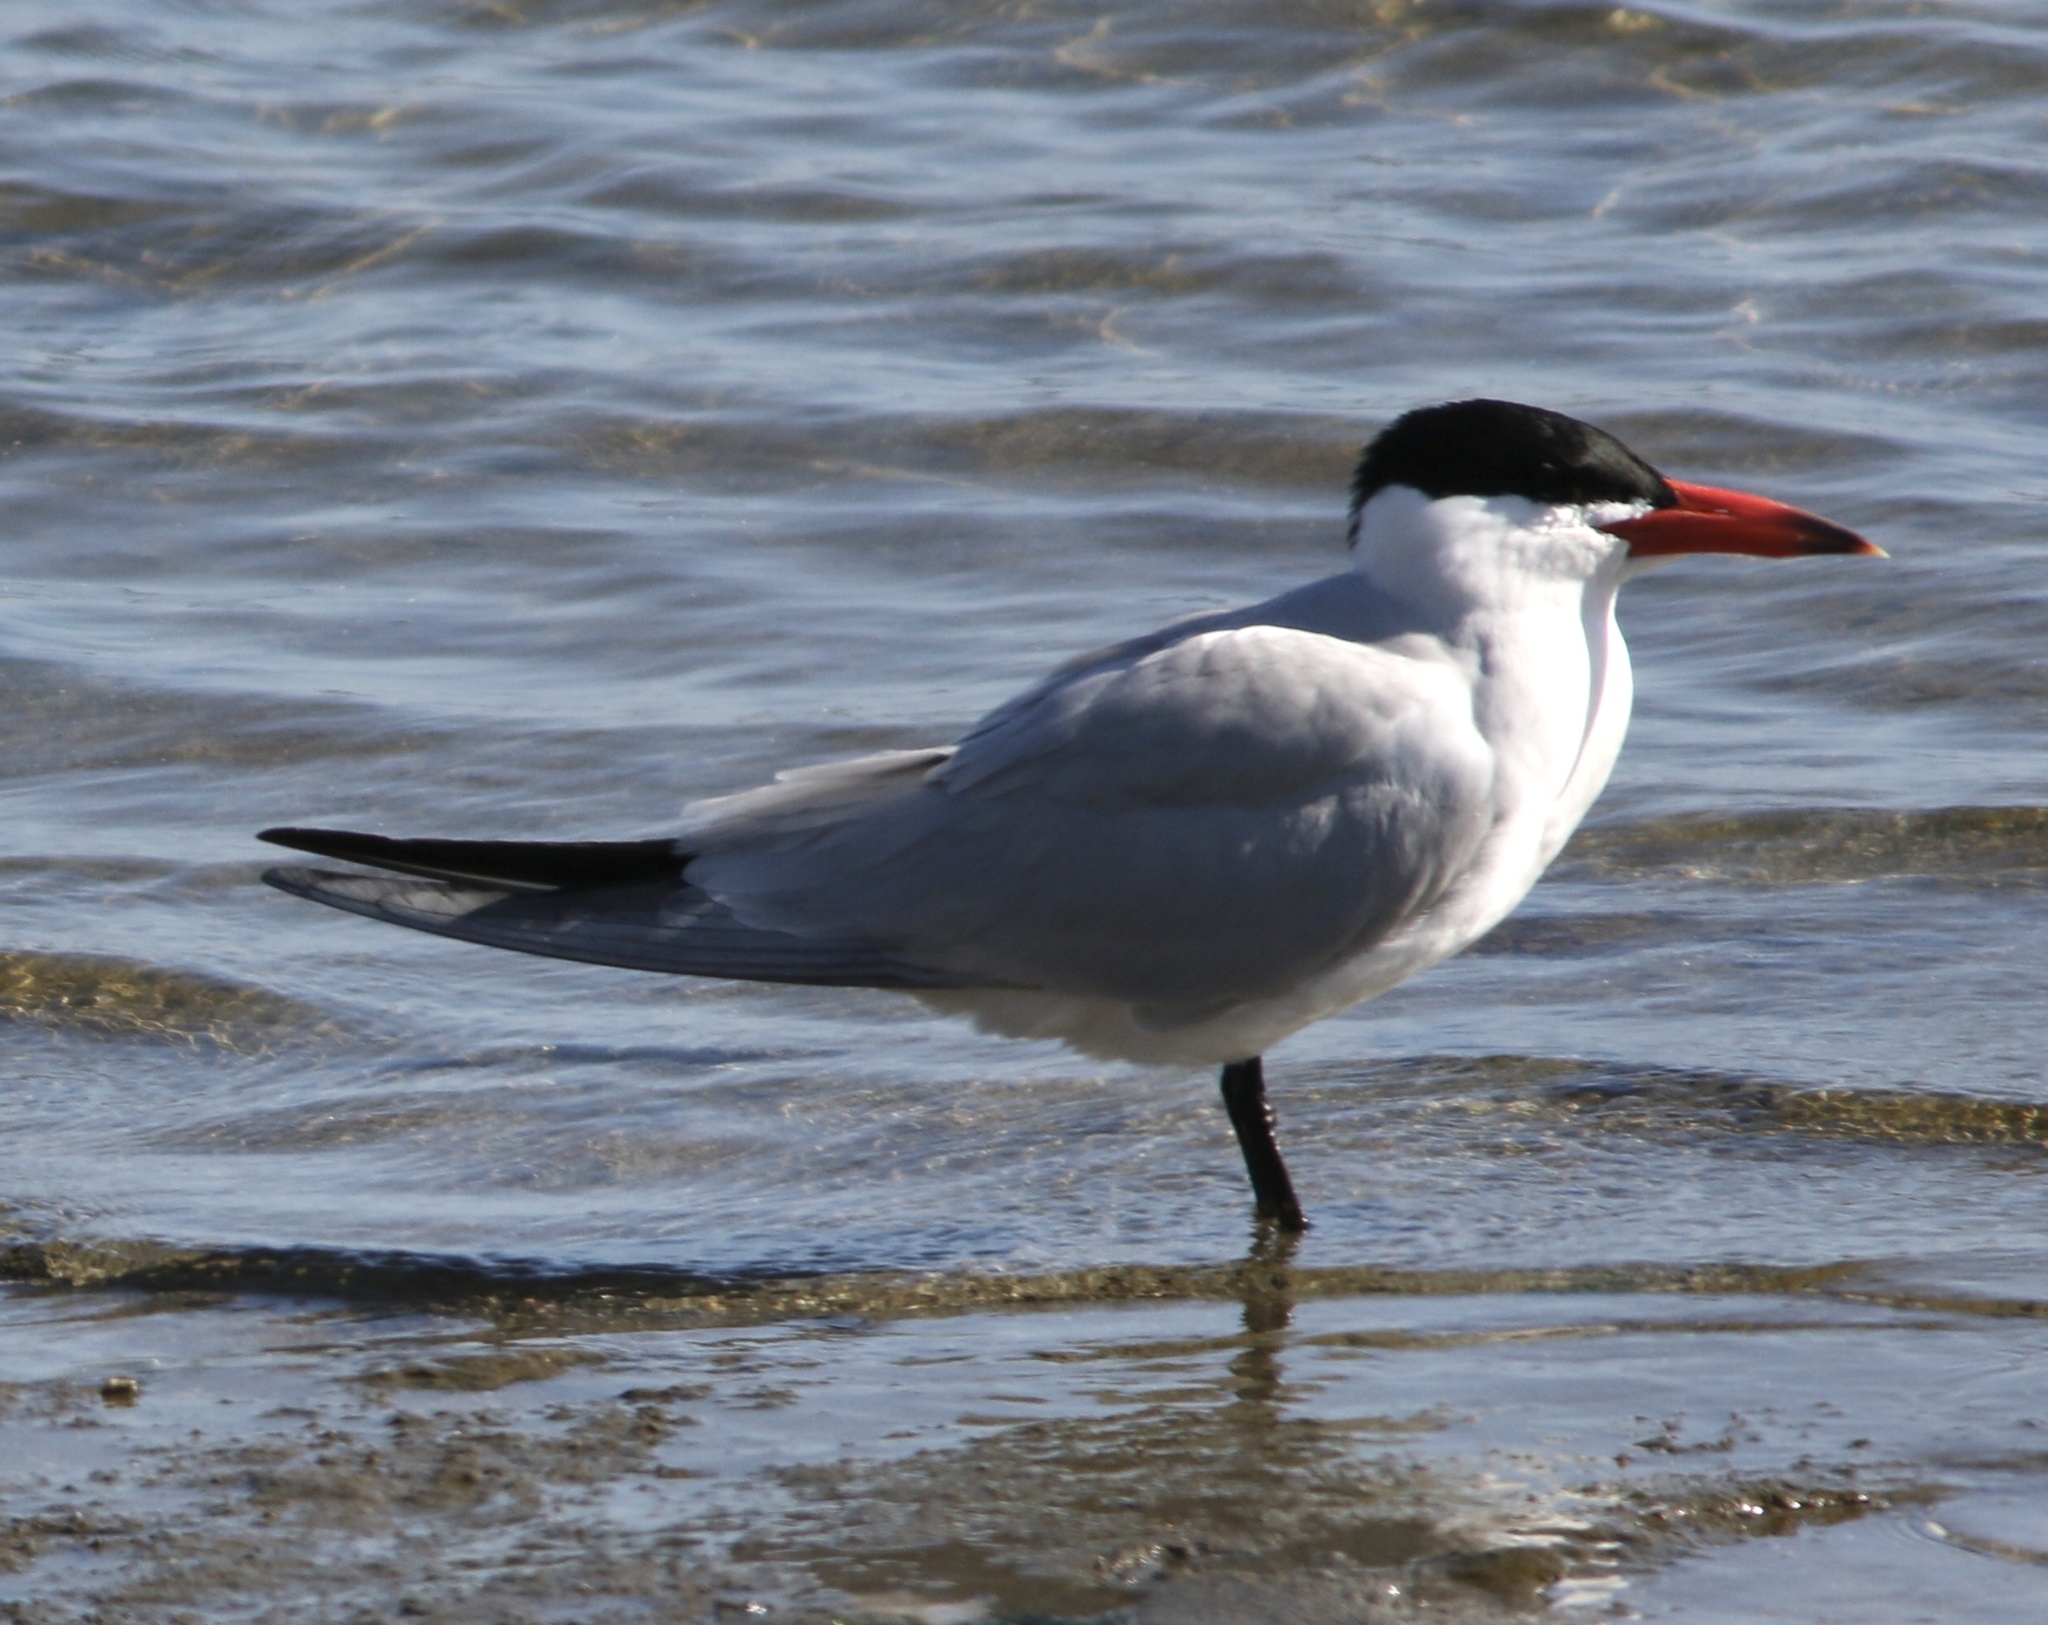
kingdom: Animalia
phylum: Chordata
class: Aves
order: Charadriiformes
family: Laridae
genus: Hydroprogne
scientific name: Hydroprogne caspia
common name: Caspian tern
